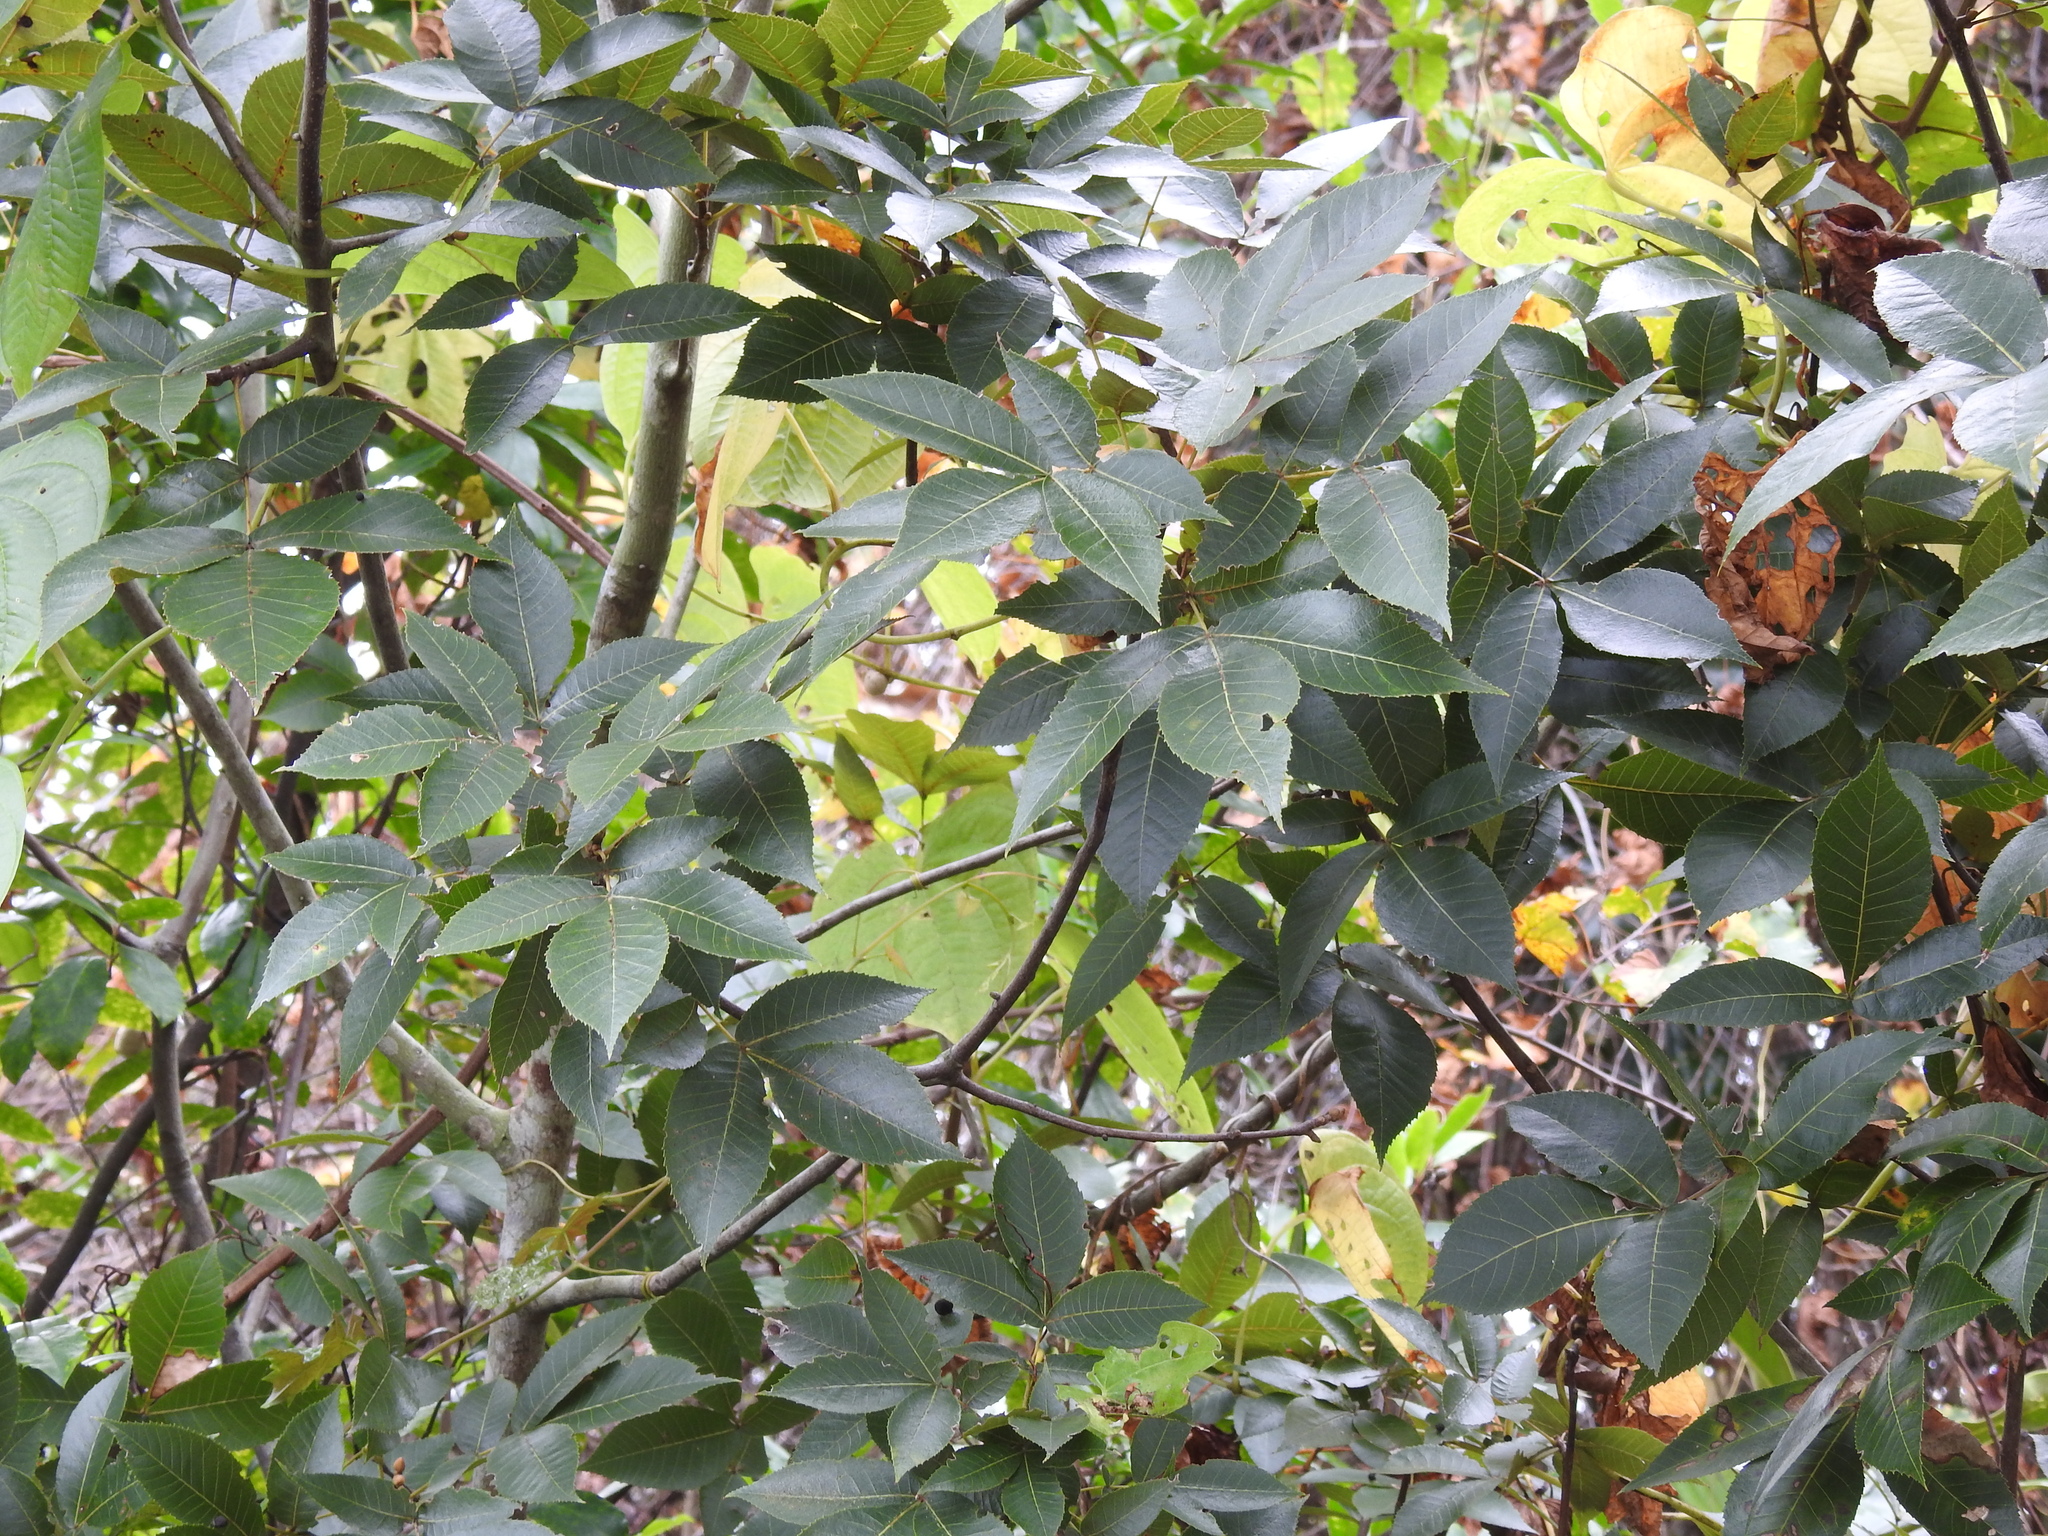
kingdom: Plantae
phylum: Tracheophyta
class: Magnoliopsida
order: Fagales
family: Juglandaceae
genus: Carya
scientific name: Carya floridana
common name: Scrub hickory
